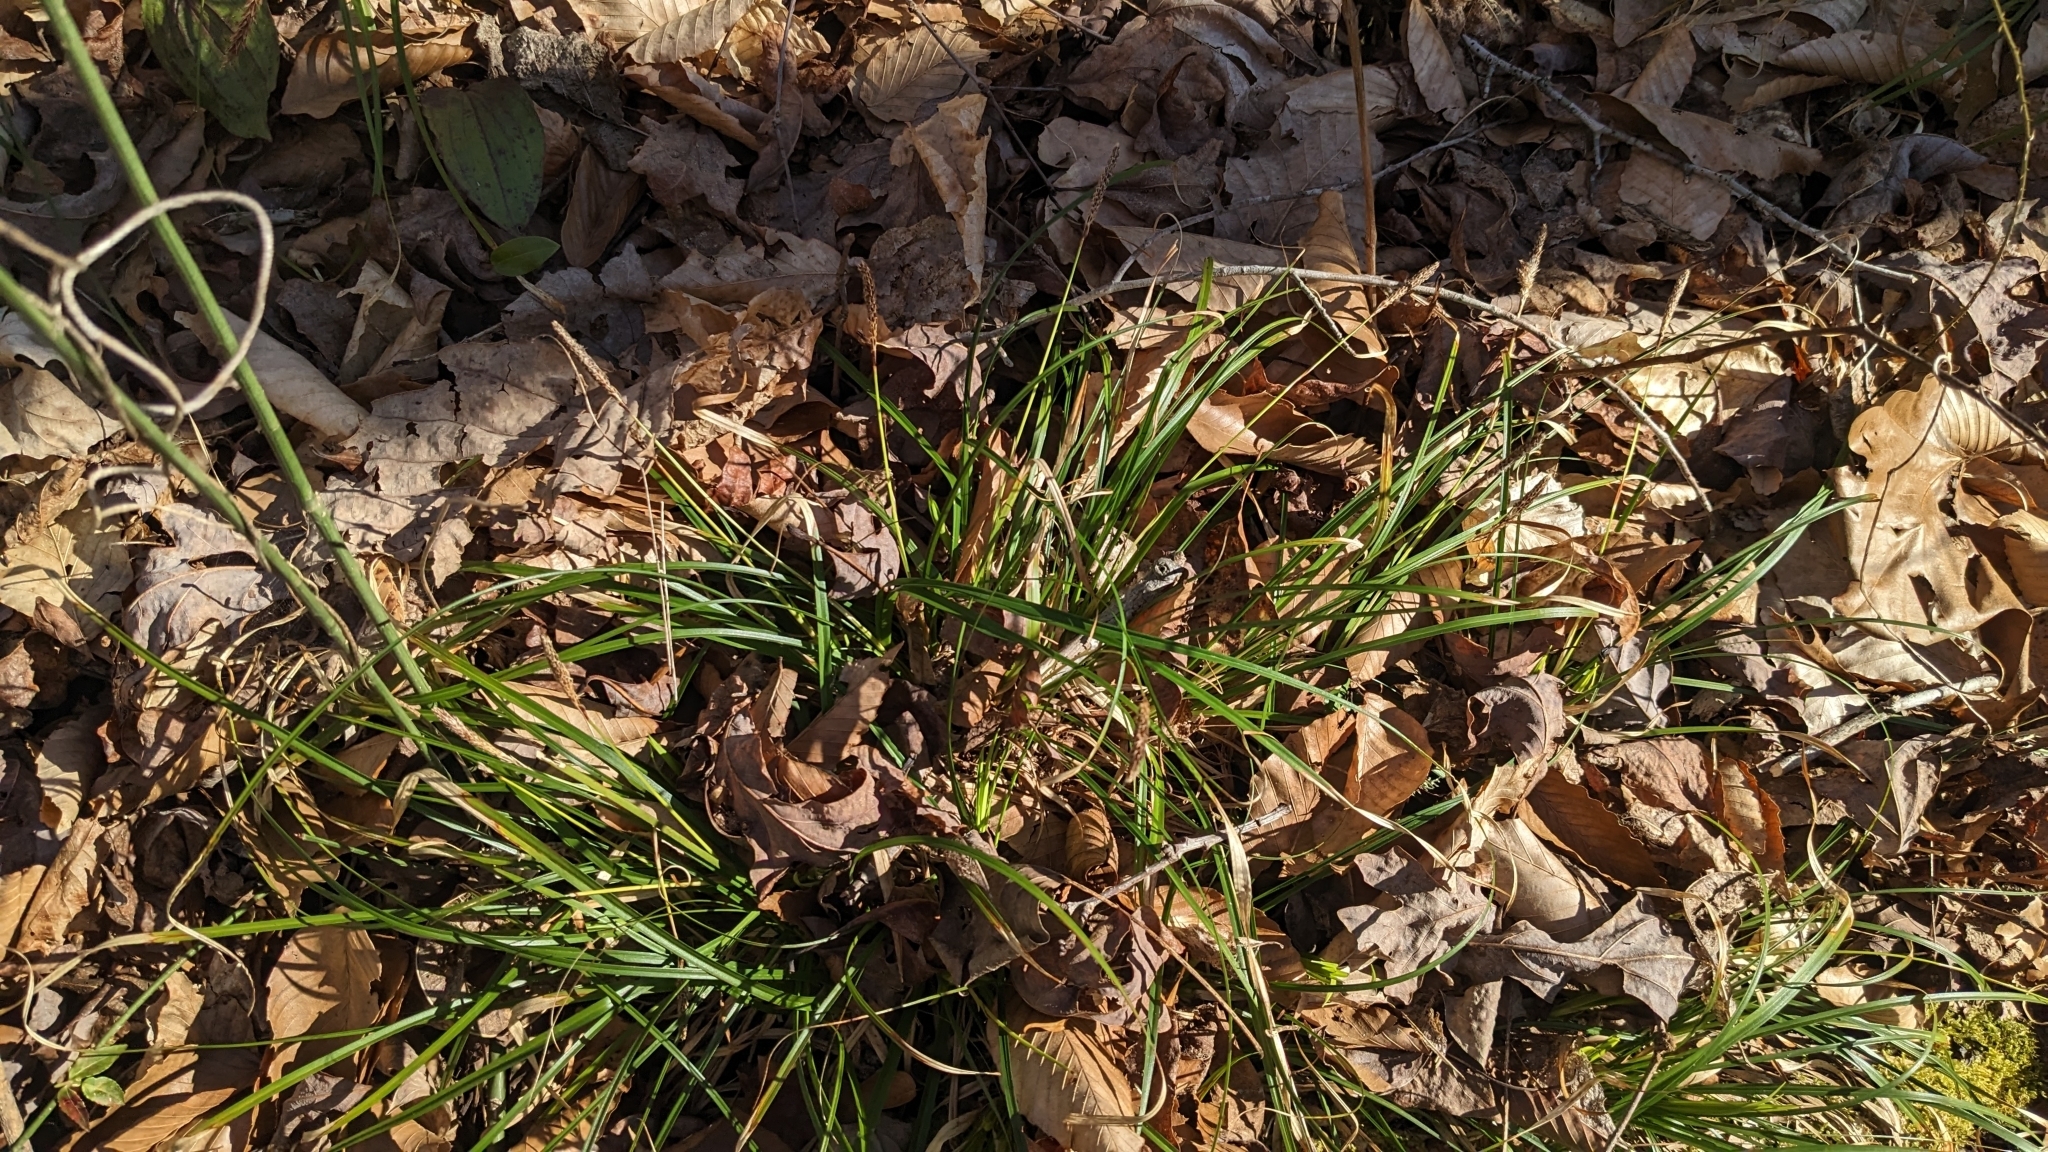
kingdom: Plantae
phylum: Tracheophyta
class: Liliopsida
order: Poales
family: Cyperaceae
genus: Carex
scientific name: Carex picta
